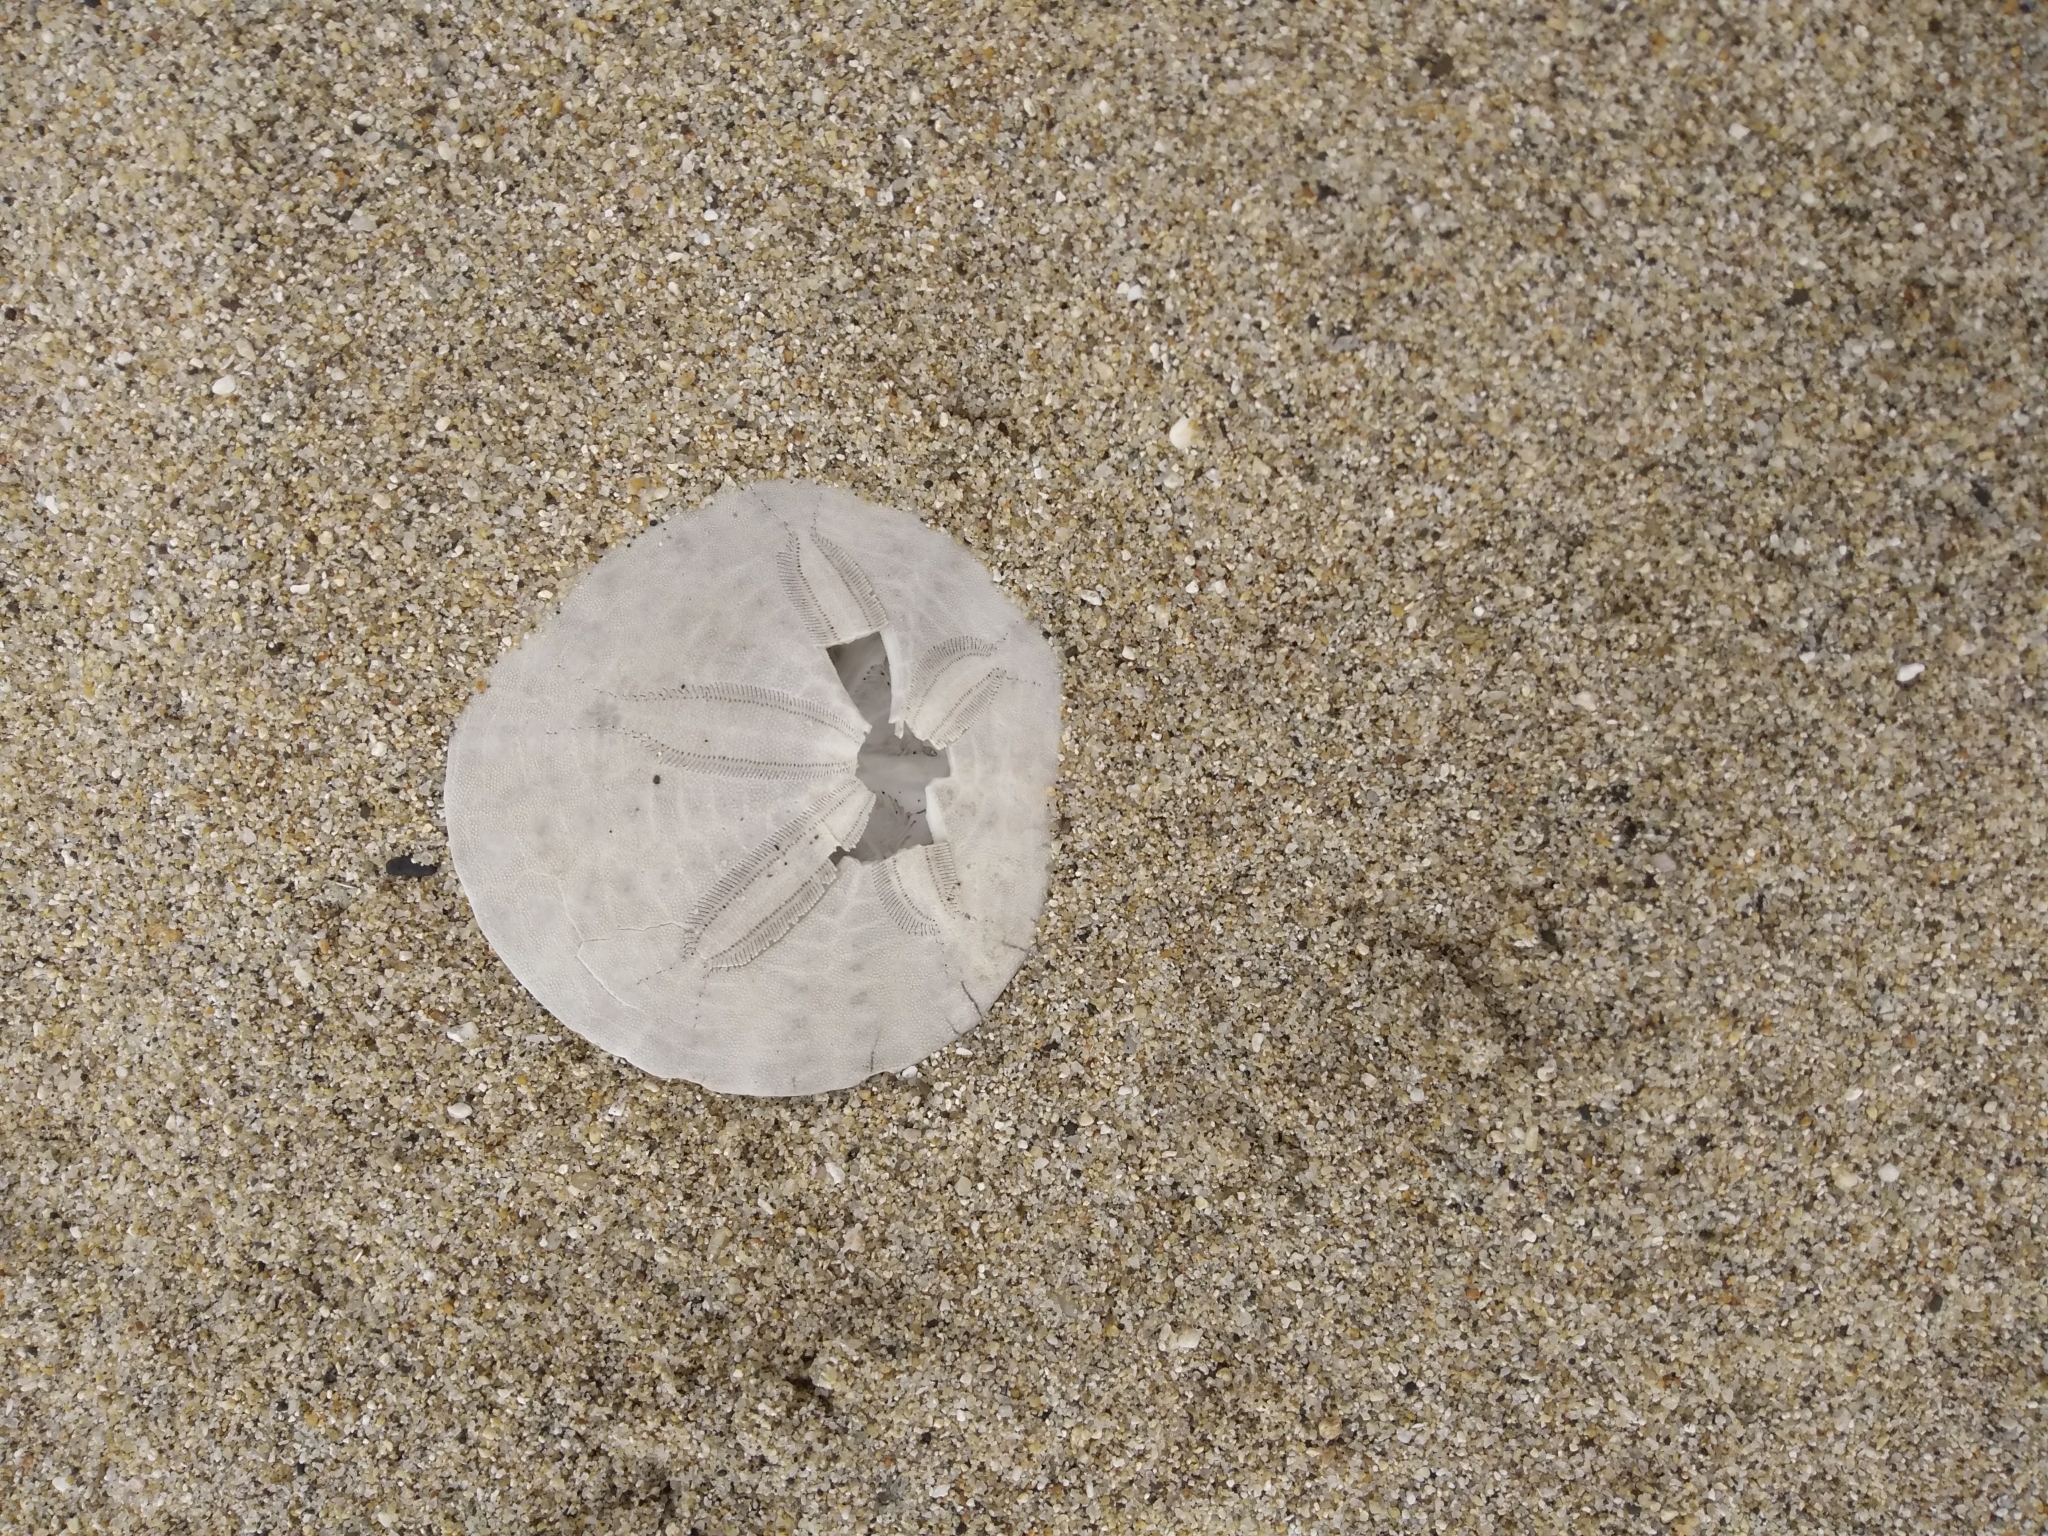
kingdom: Animalia
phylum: Echinodermata
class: Echinoidea
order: Echinolampadacea
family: Dendrasteridae
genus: Dendraster
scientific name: Dendraster excentricus
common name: Eccentric sand dollar sea urchin
